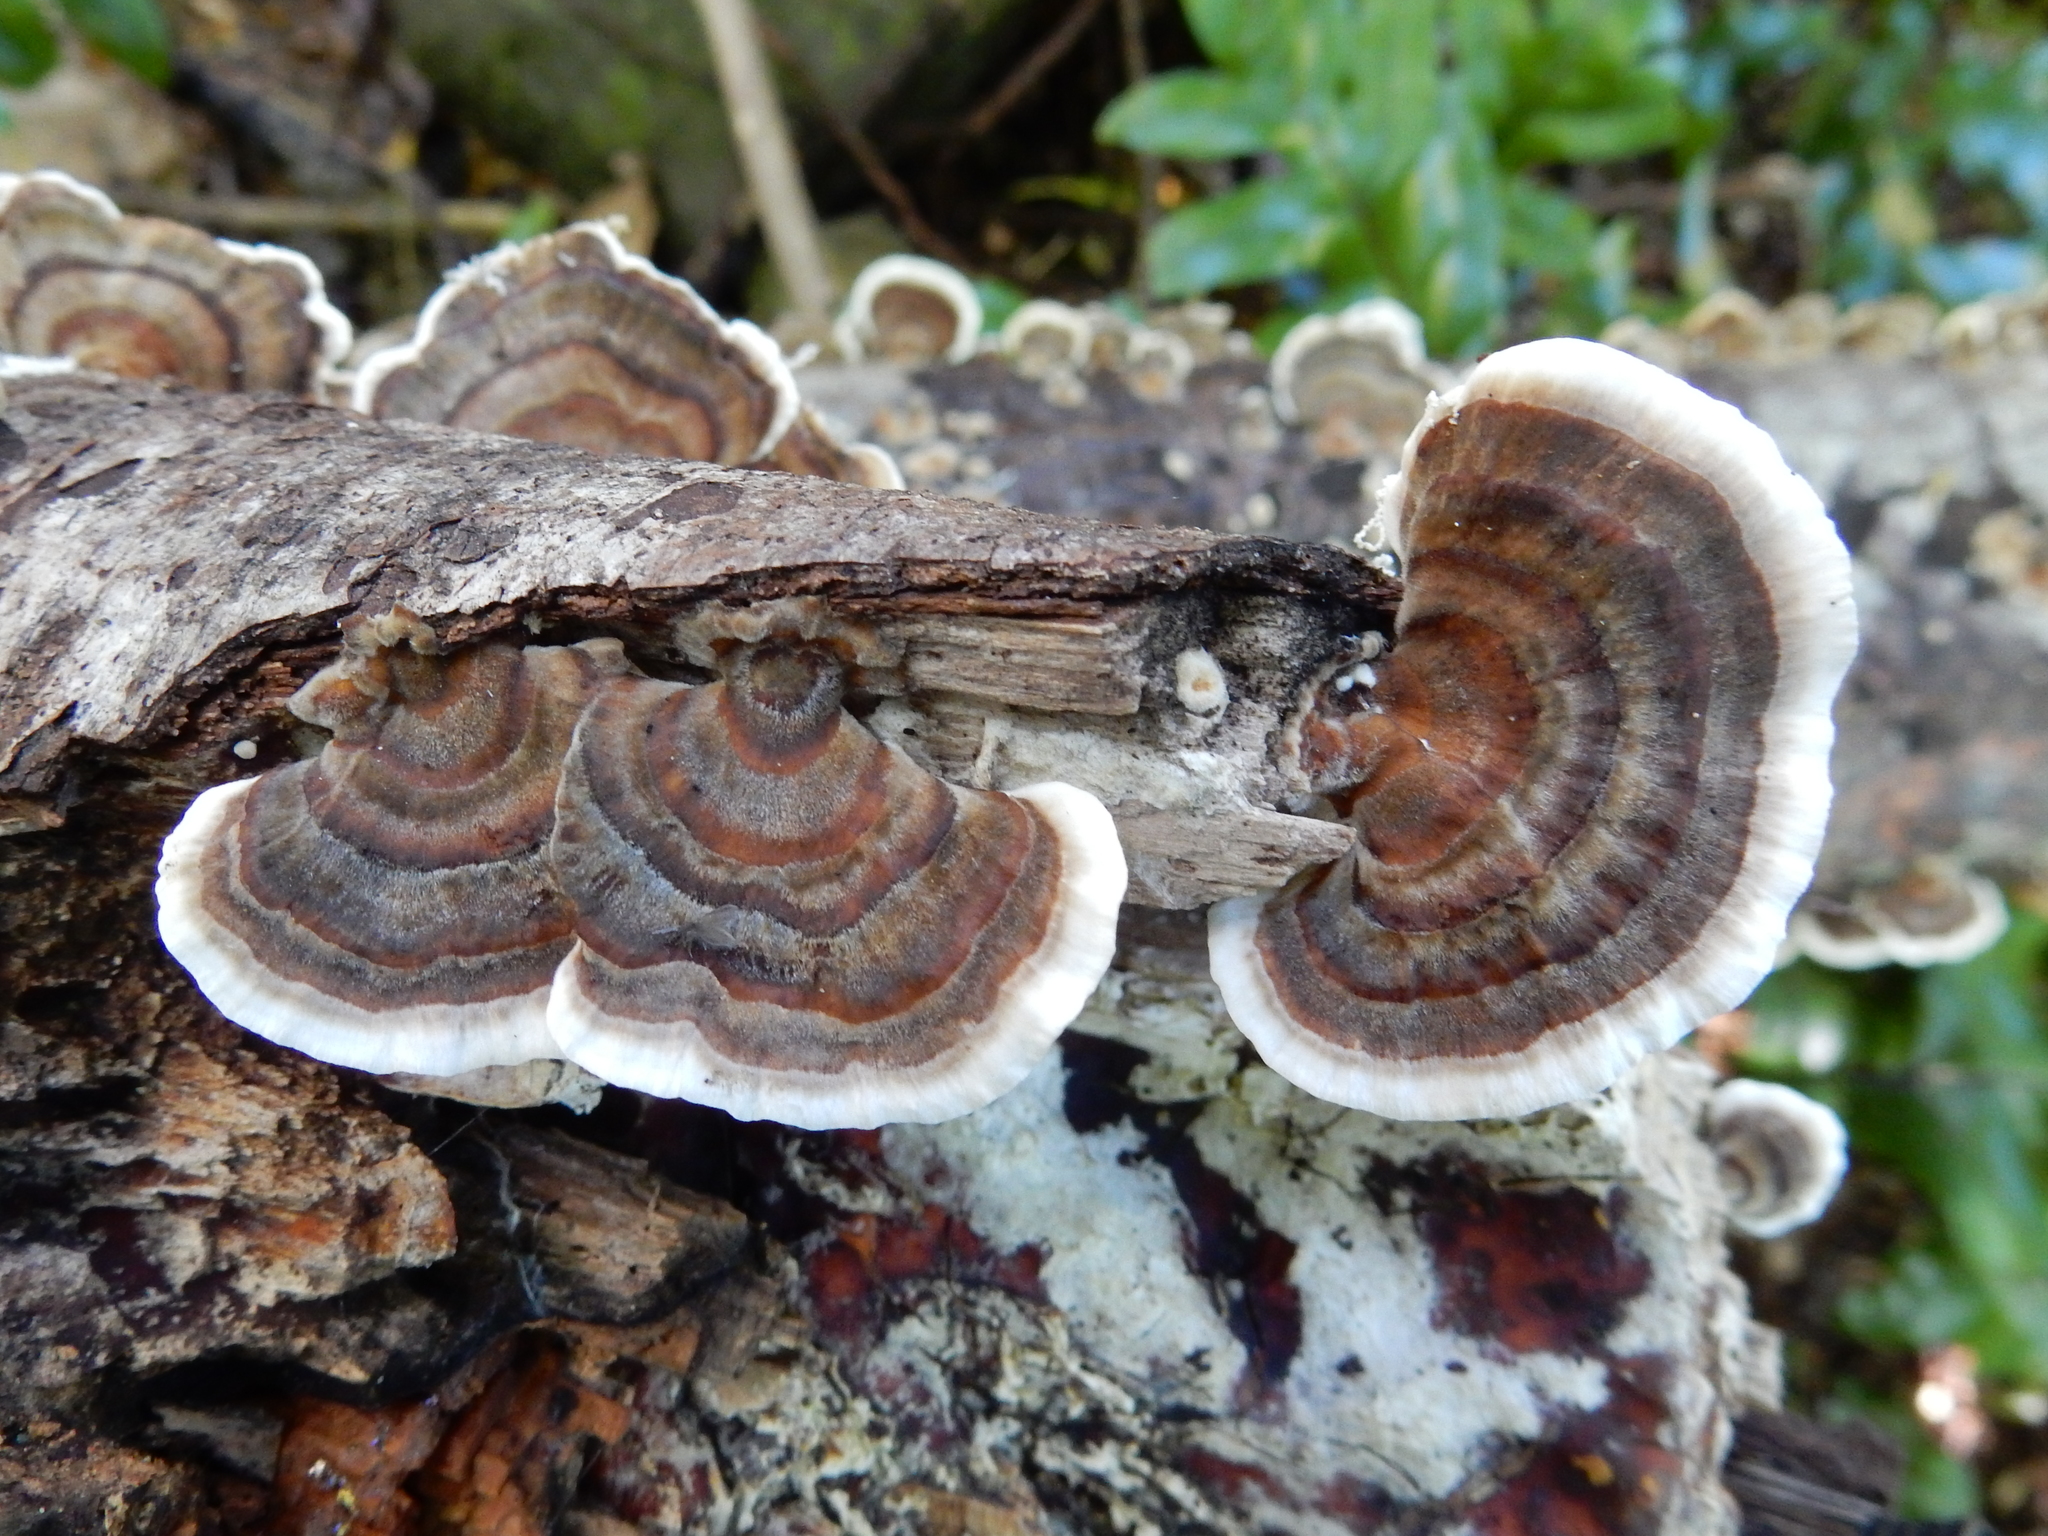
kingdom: Fungi
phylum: Basidiomycota
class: Agaricomycetes
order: Polyporales
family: Polyporaceae
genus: Trametes
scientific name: Trametes versicolor
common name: Turkeytail
